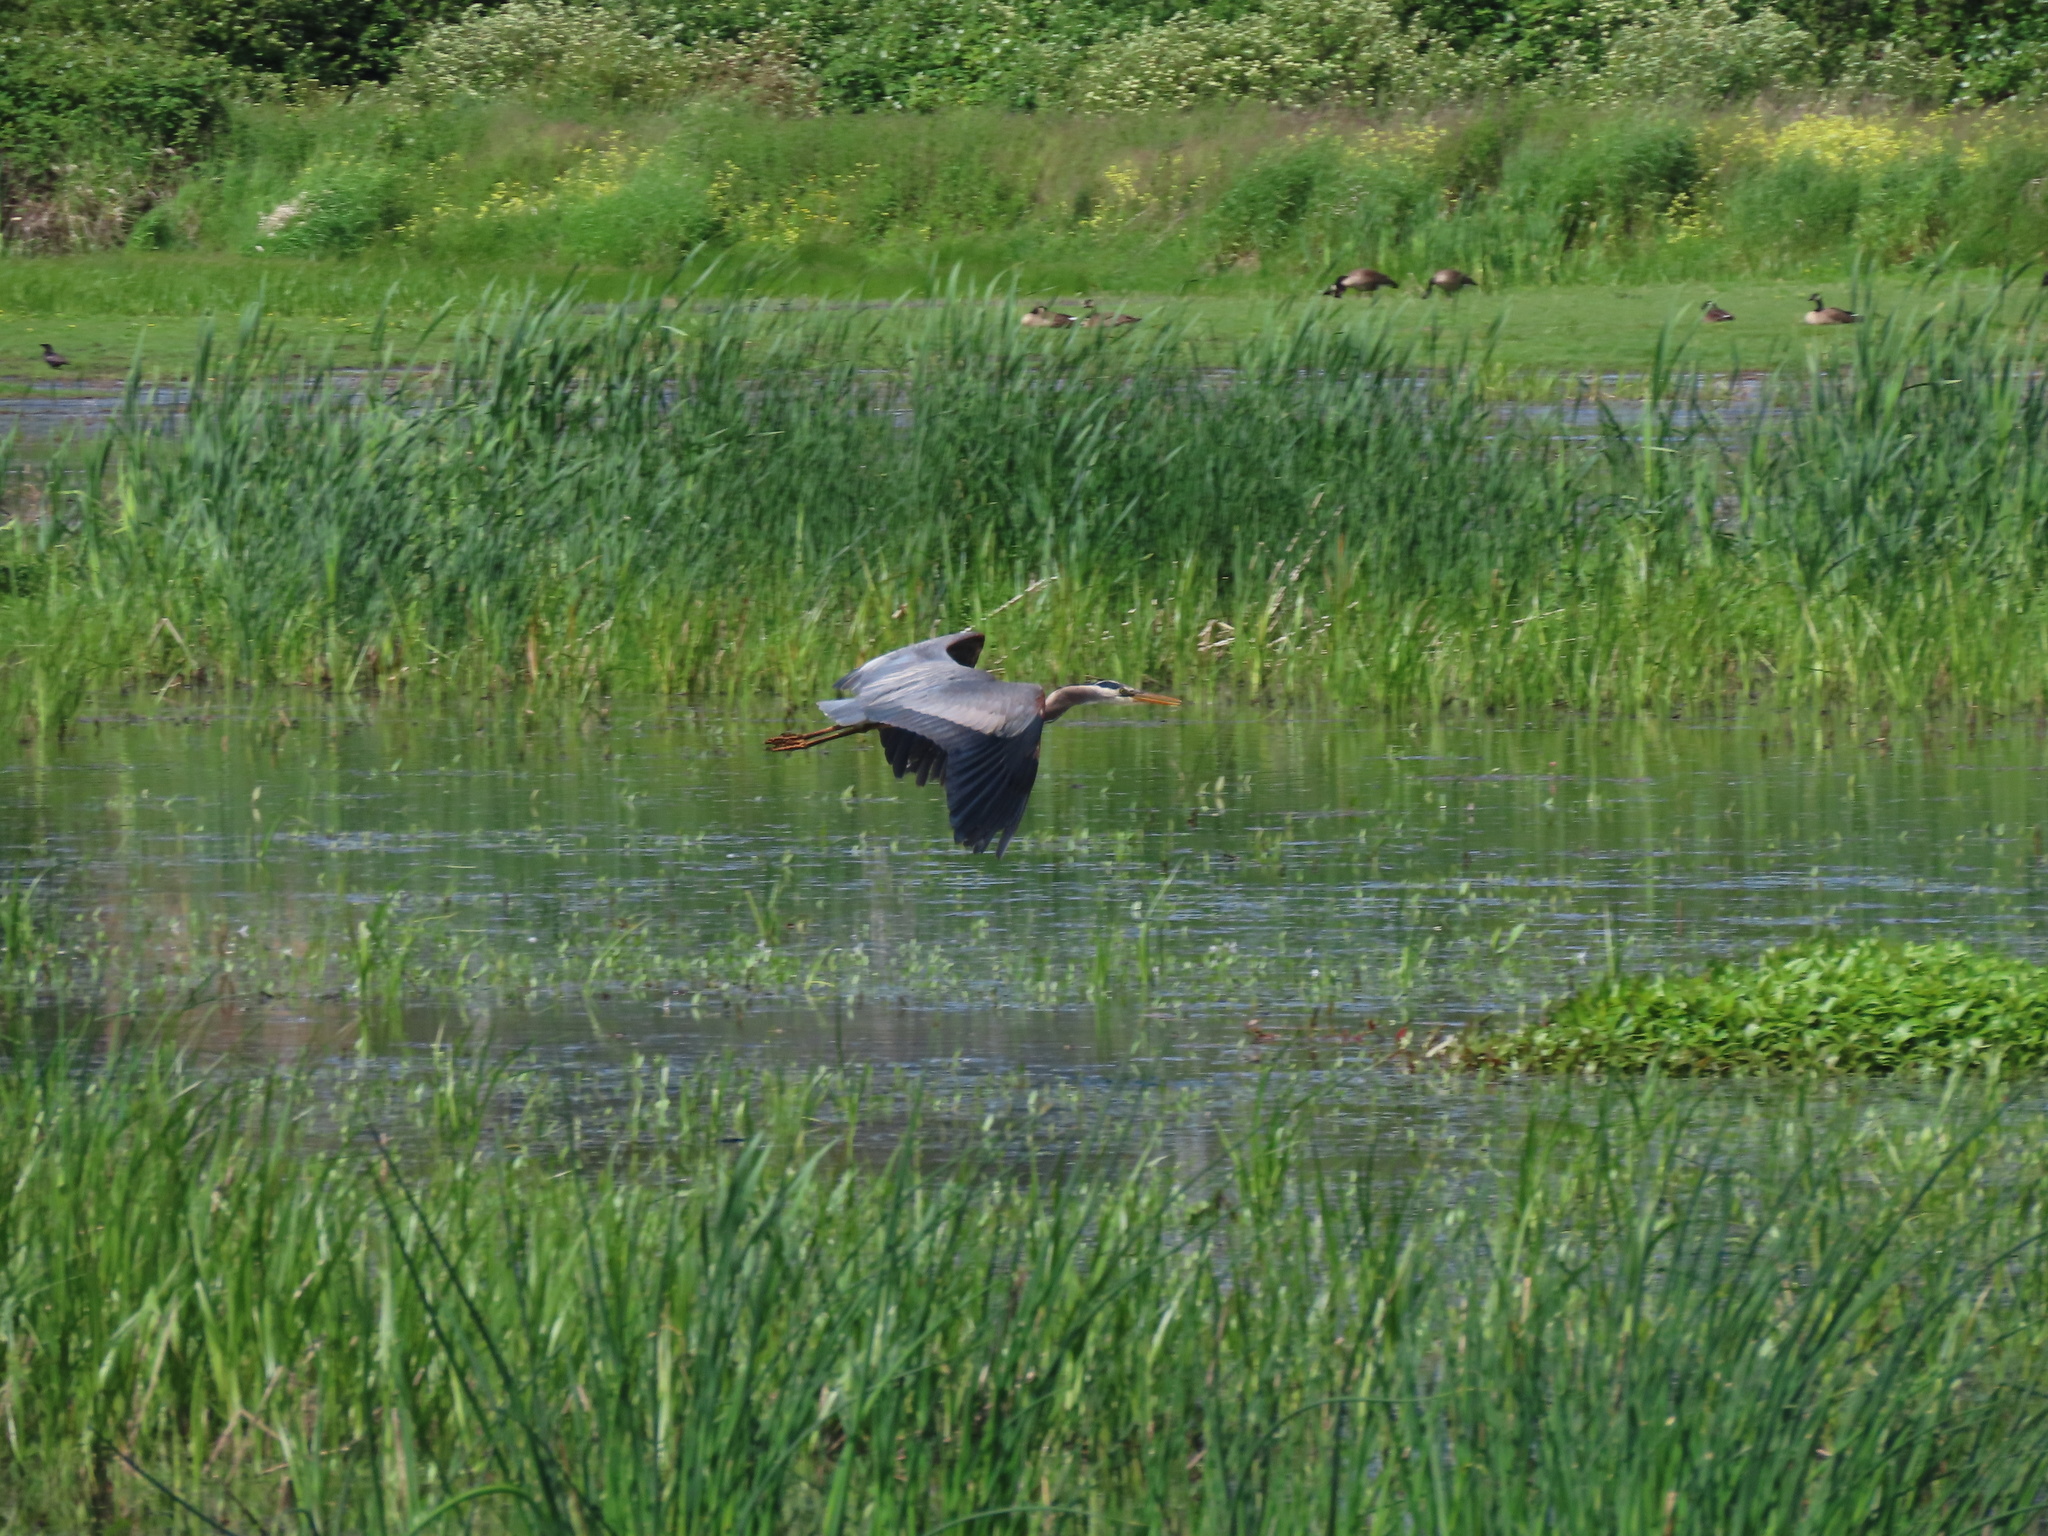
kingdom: Animalia
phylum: Chordata
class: Aves
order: Pelecaniformes
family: Ardeidae
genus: Ardea
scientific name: Ardea herodias
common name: Great blue heron
